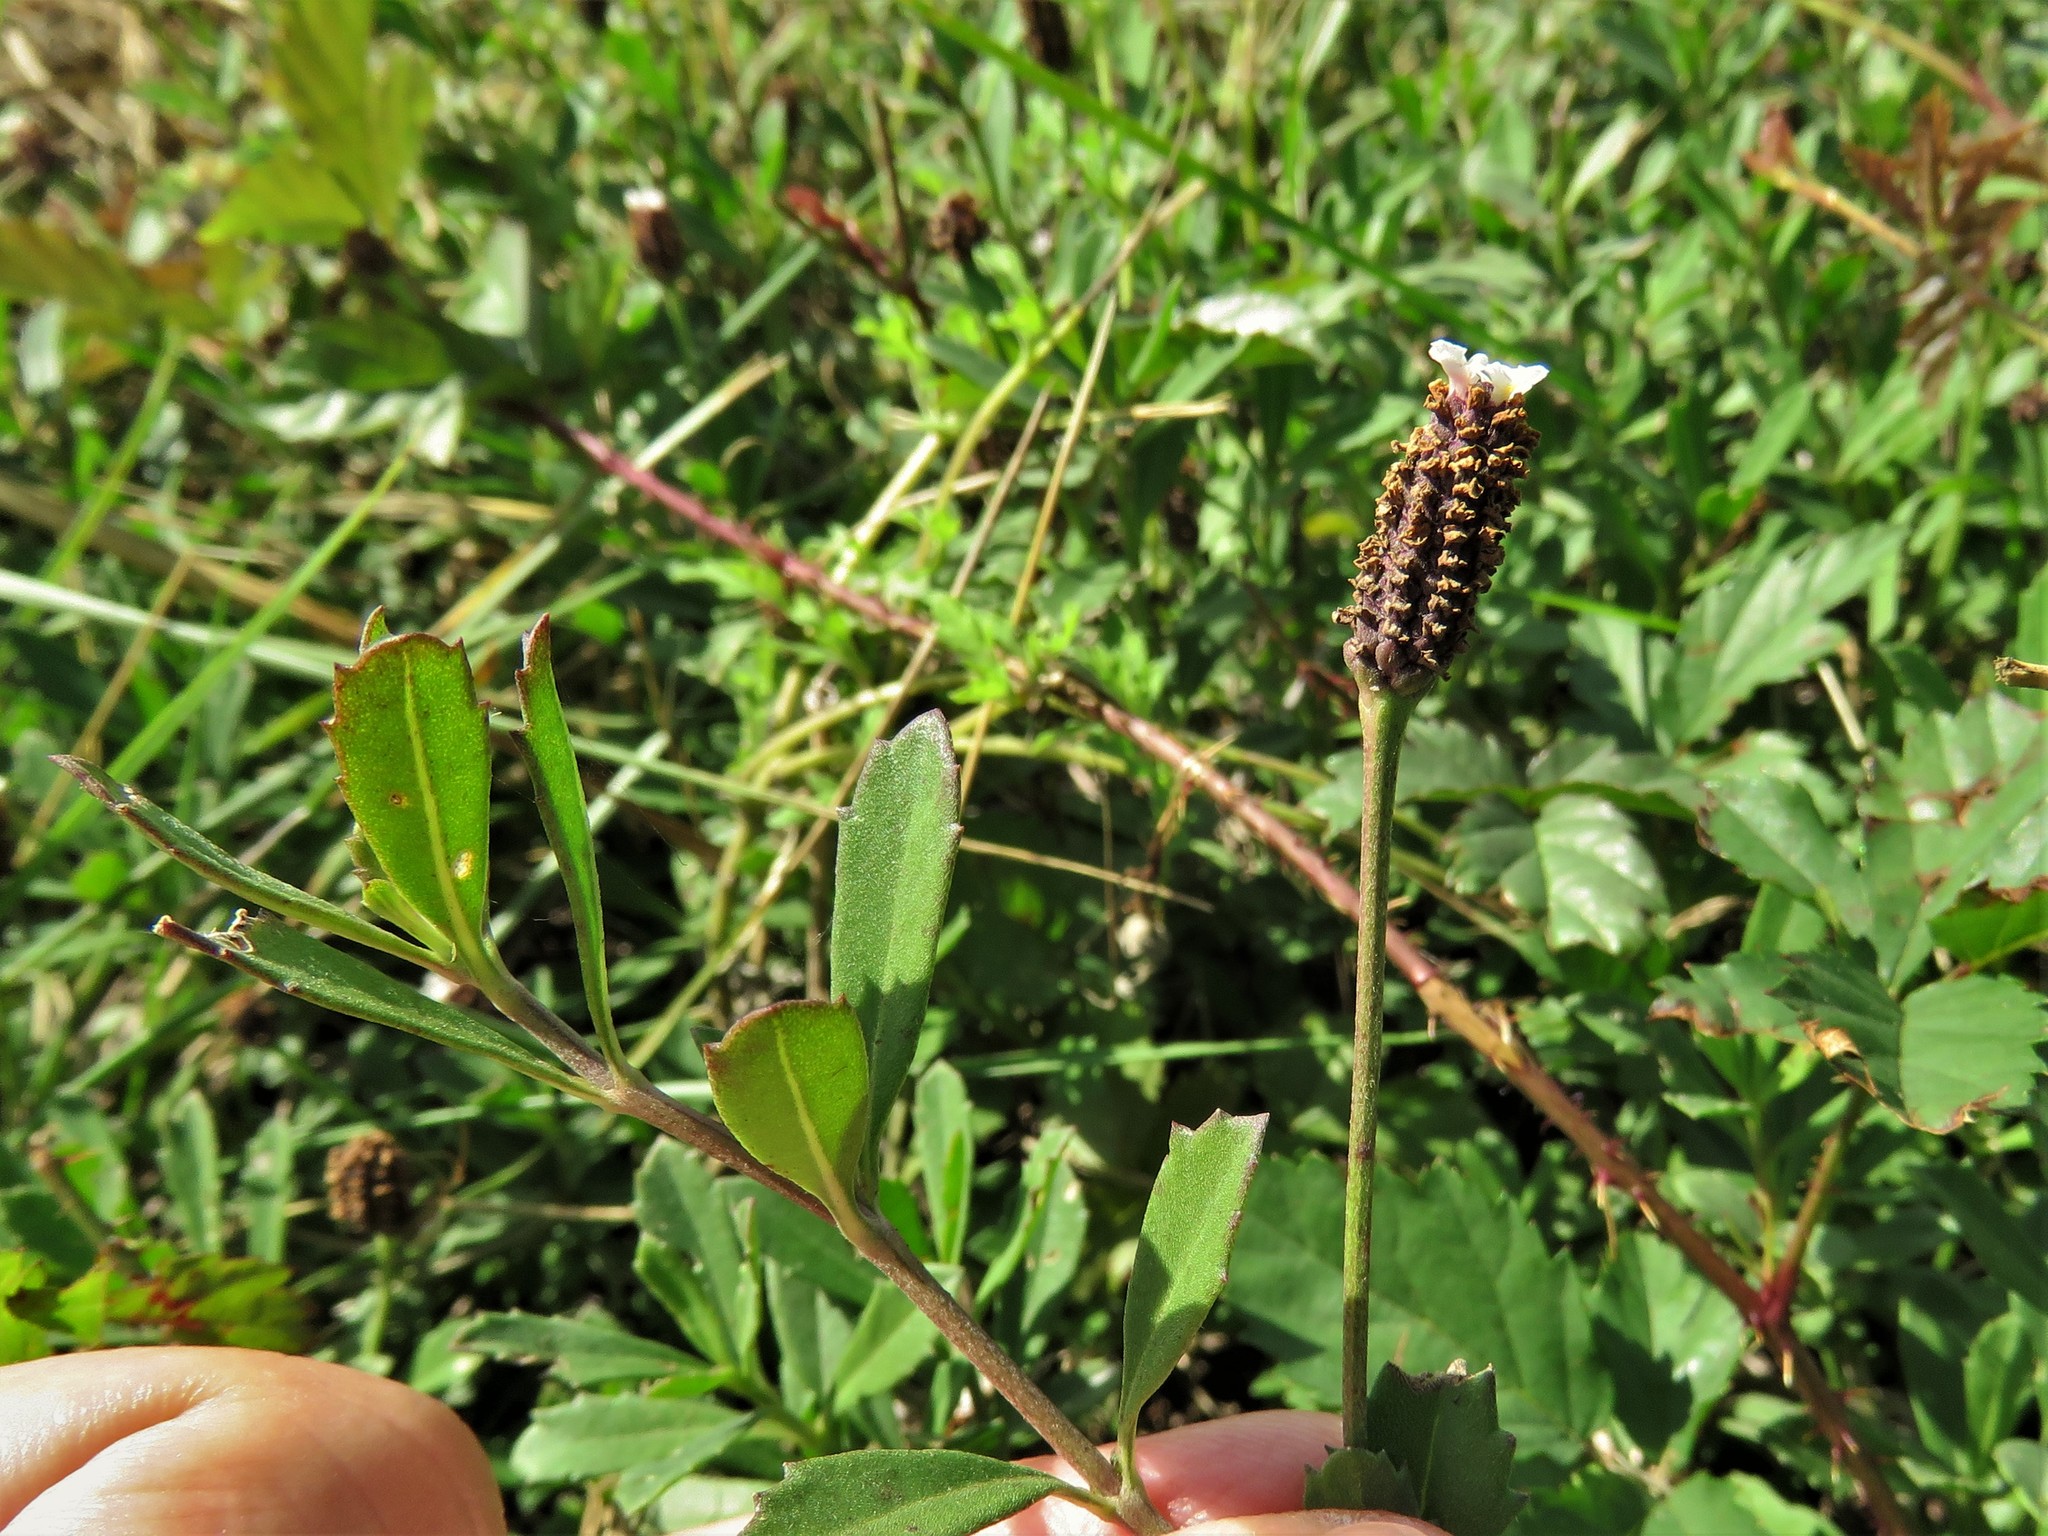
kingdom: Plantae
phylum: Tracheophyta
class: Magnoliopsida
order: Lamiales
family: Verbenaceae
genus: Phyla
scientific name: Phyla nodiflora
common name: Frogfruit
